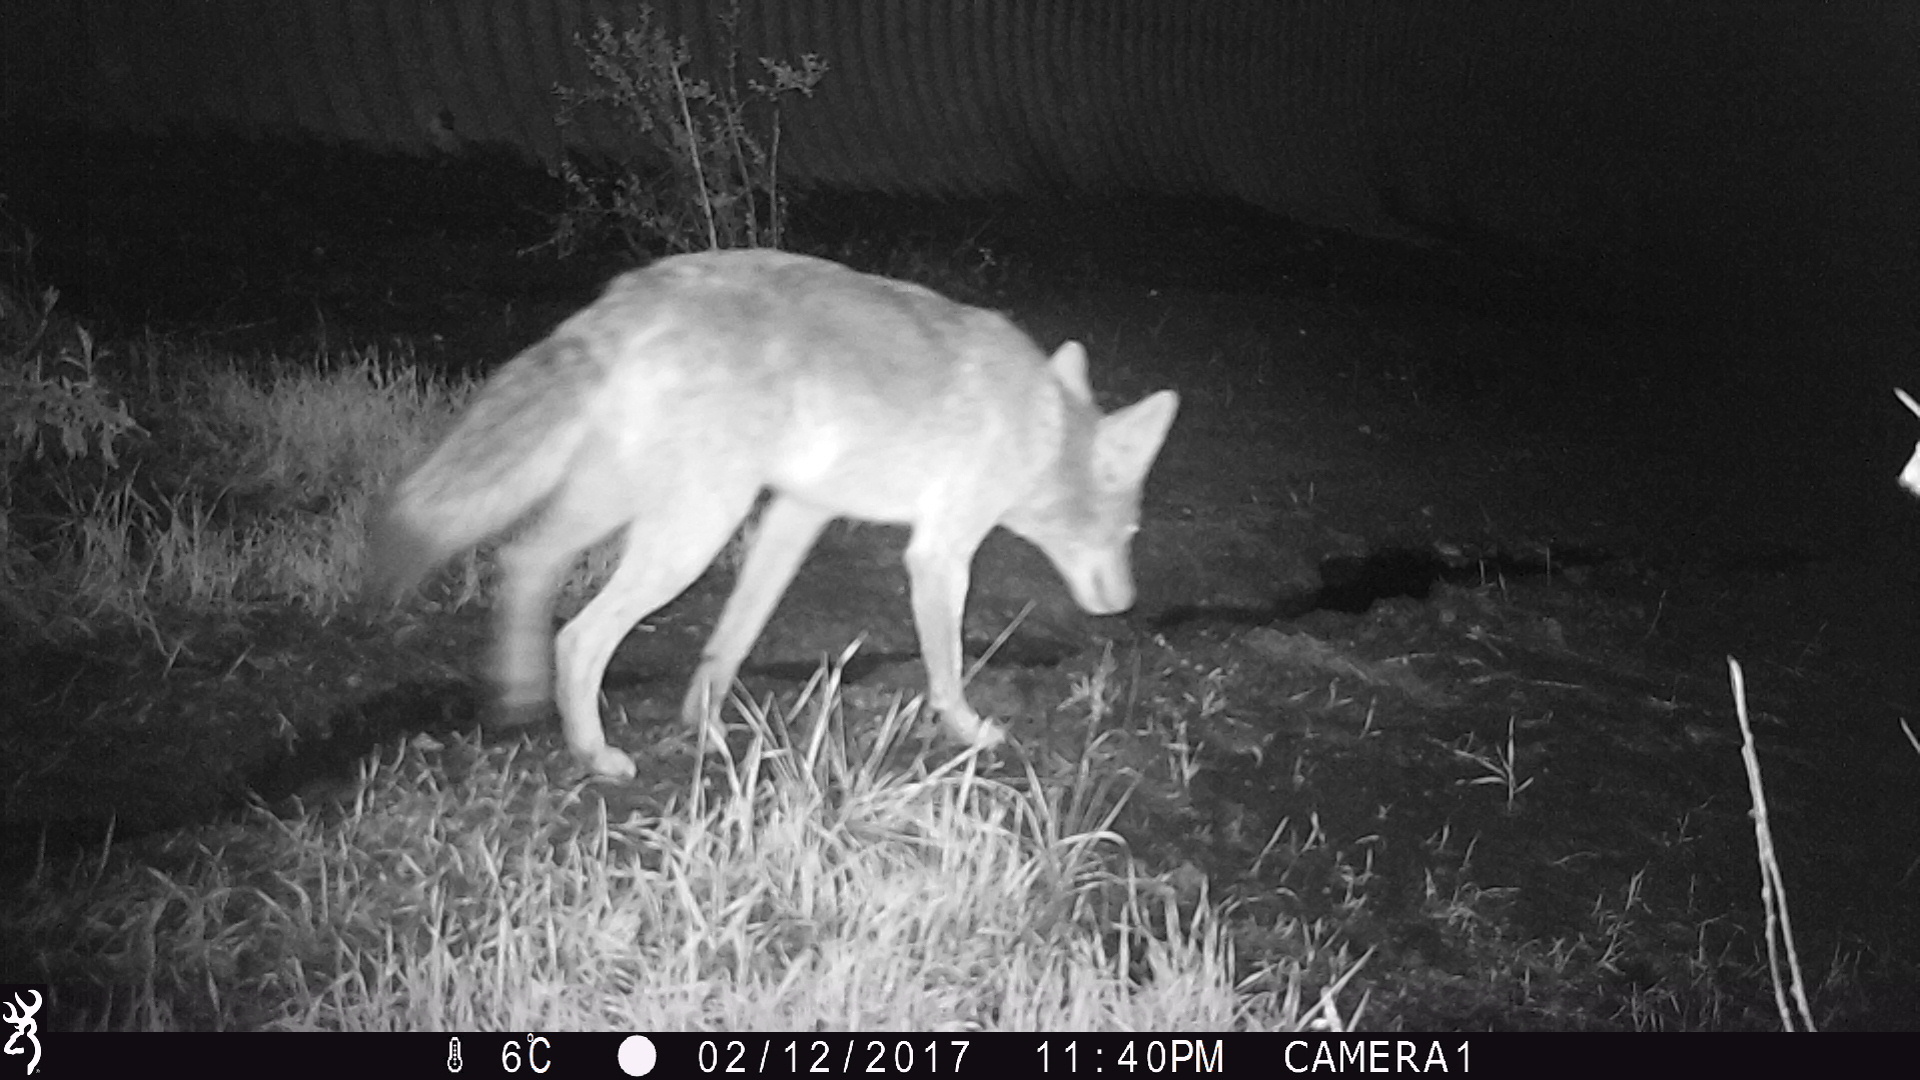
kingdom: Animalia
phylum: Chordata
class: Mammalia
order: Carnivora
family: Canidae
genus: Canis
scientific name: Canis latrans
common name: Coyote
